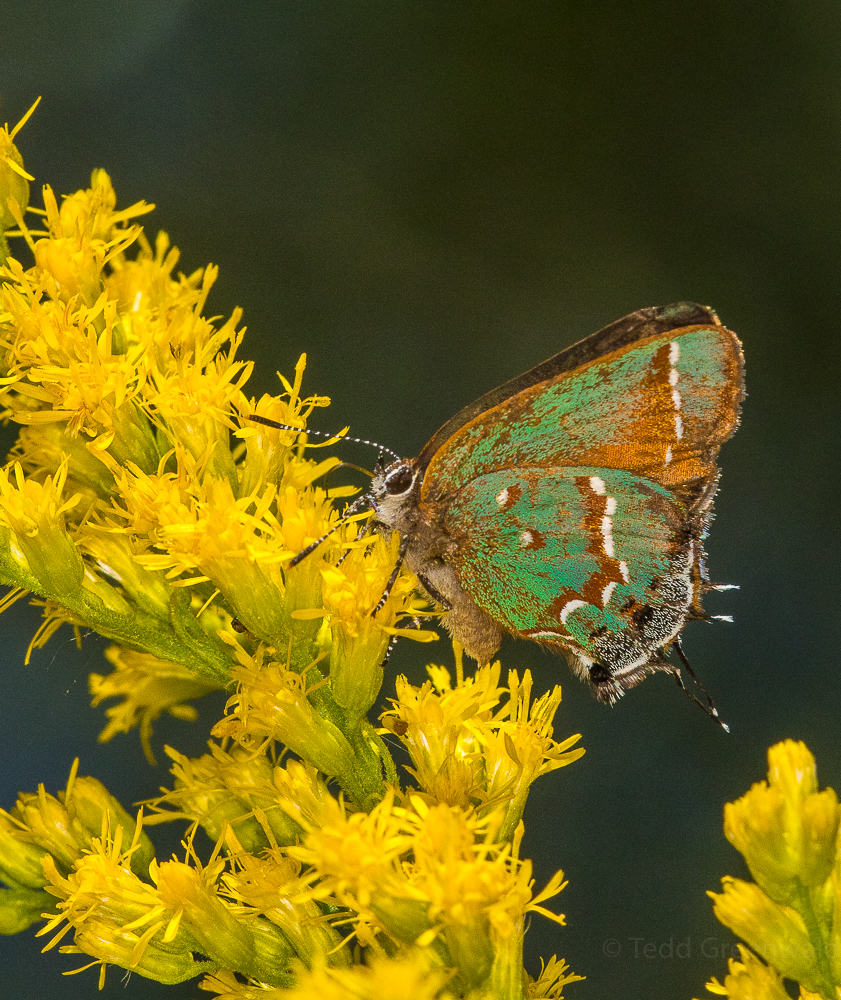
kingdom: Animalia
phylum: Arthropoda
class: Insecta
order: Lepidoptera
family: Lycaenidae
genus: Mitoura
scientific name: Mitoura gryneus
